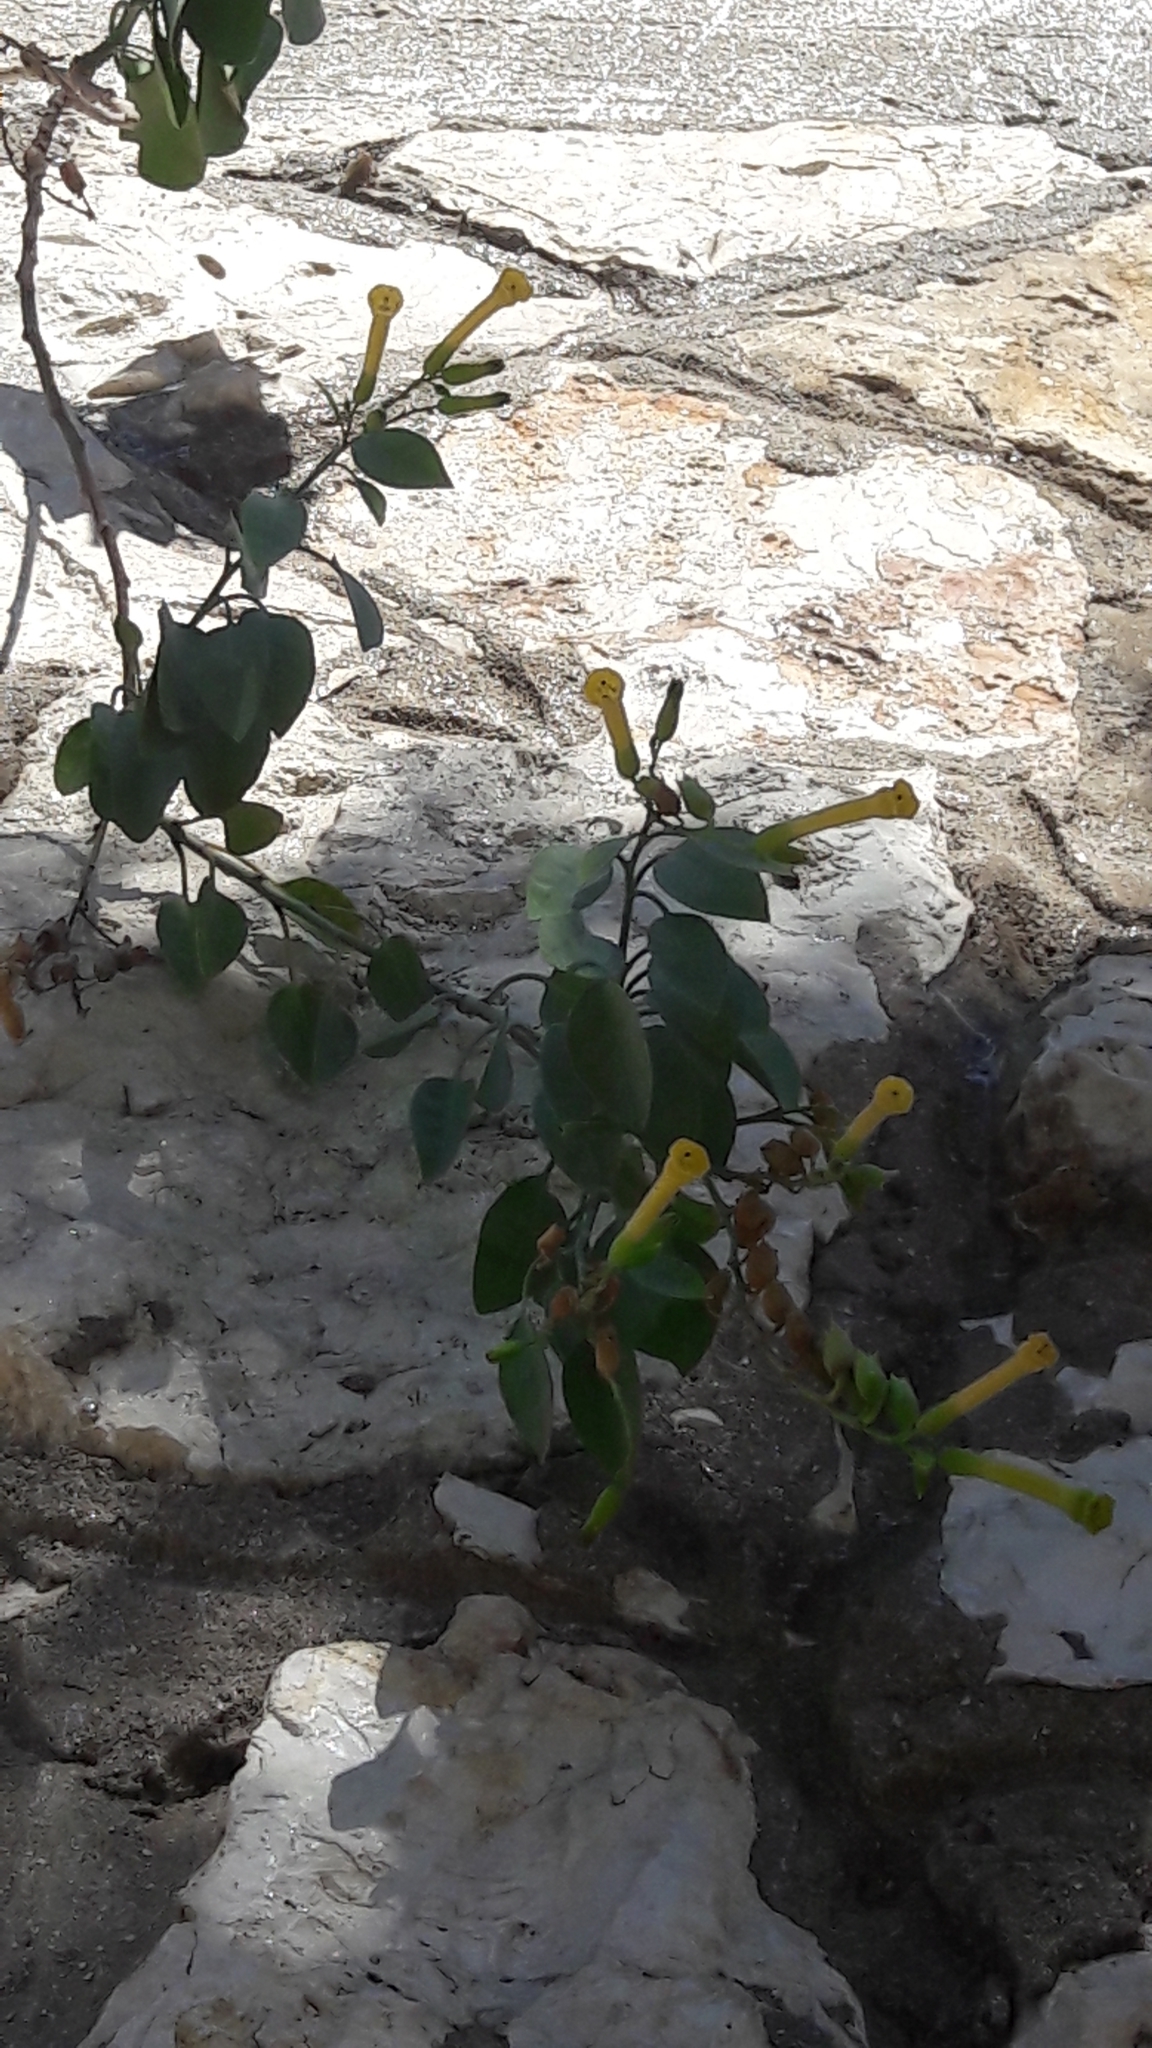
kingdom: Plantae
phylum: Tracheophyta
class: Magnoliopsida
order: Solanales
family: Solanaceae
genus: Nicotiana
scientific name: Nicotiana glauca
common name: Tree tobacco
